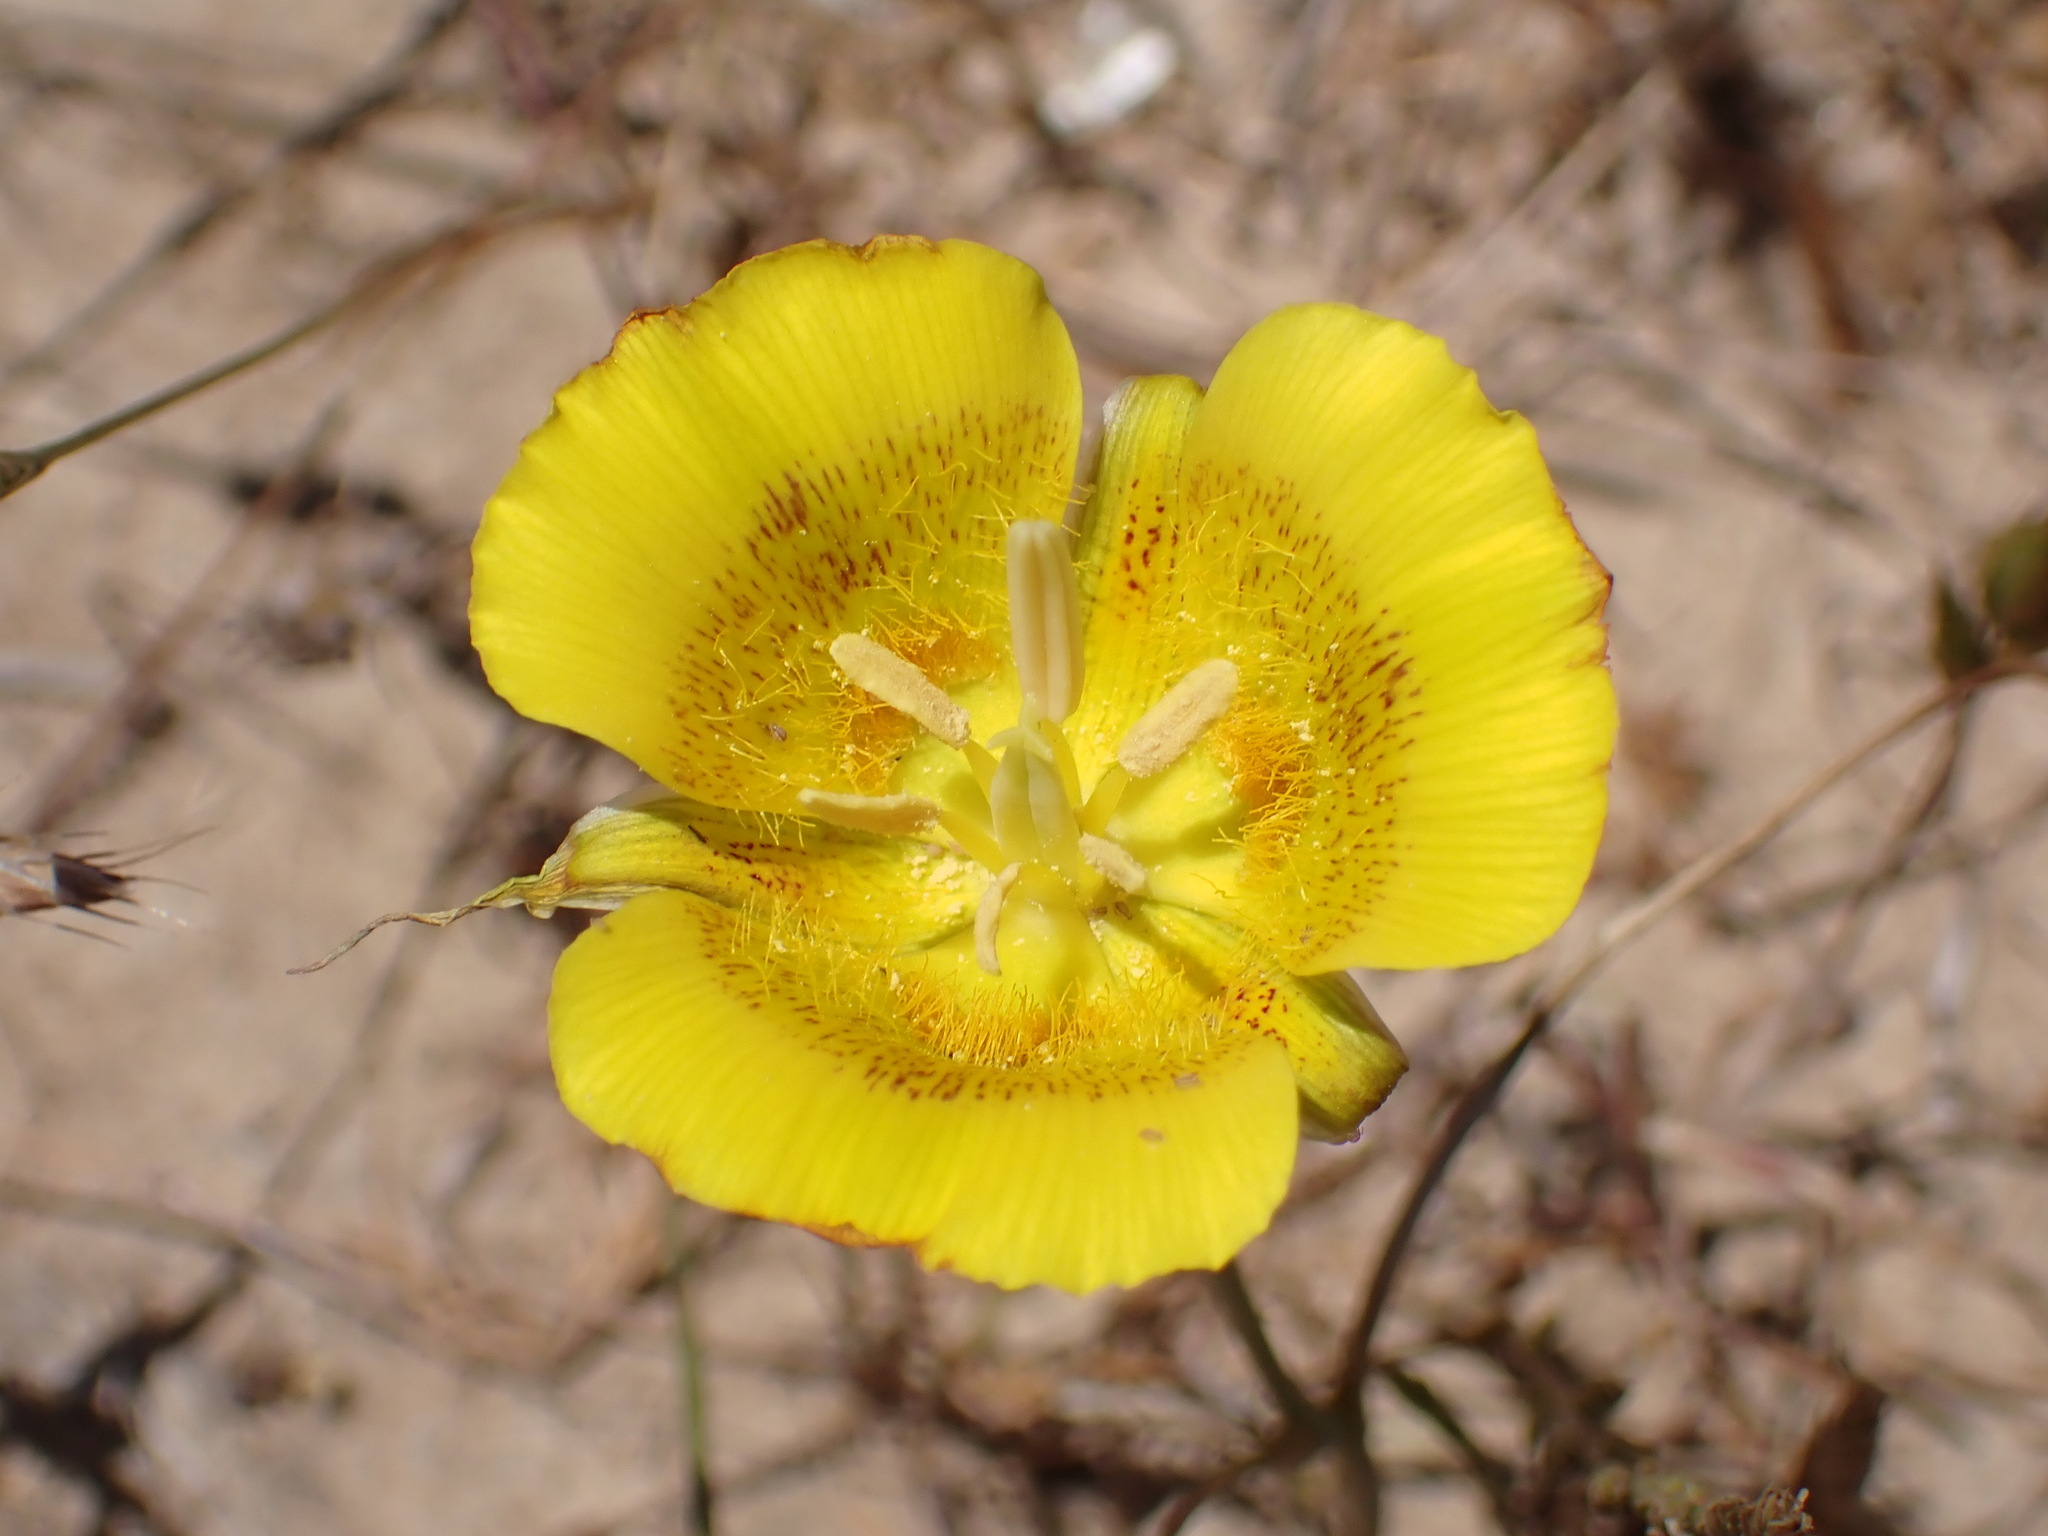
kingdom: Plantae
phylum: Tracheophyta
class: Liliopsida
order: Liliales
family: Liliaceae
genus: Calochortus
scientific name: Calochortus luteus
